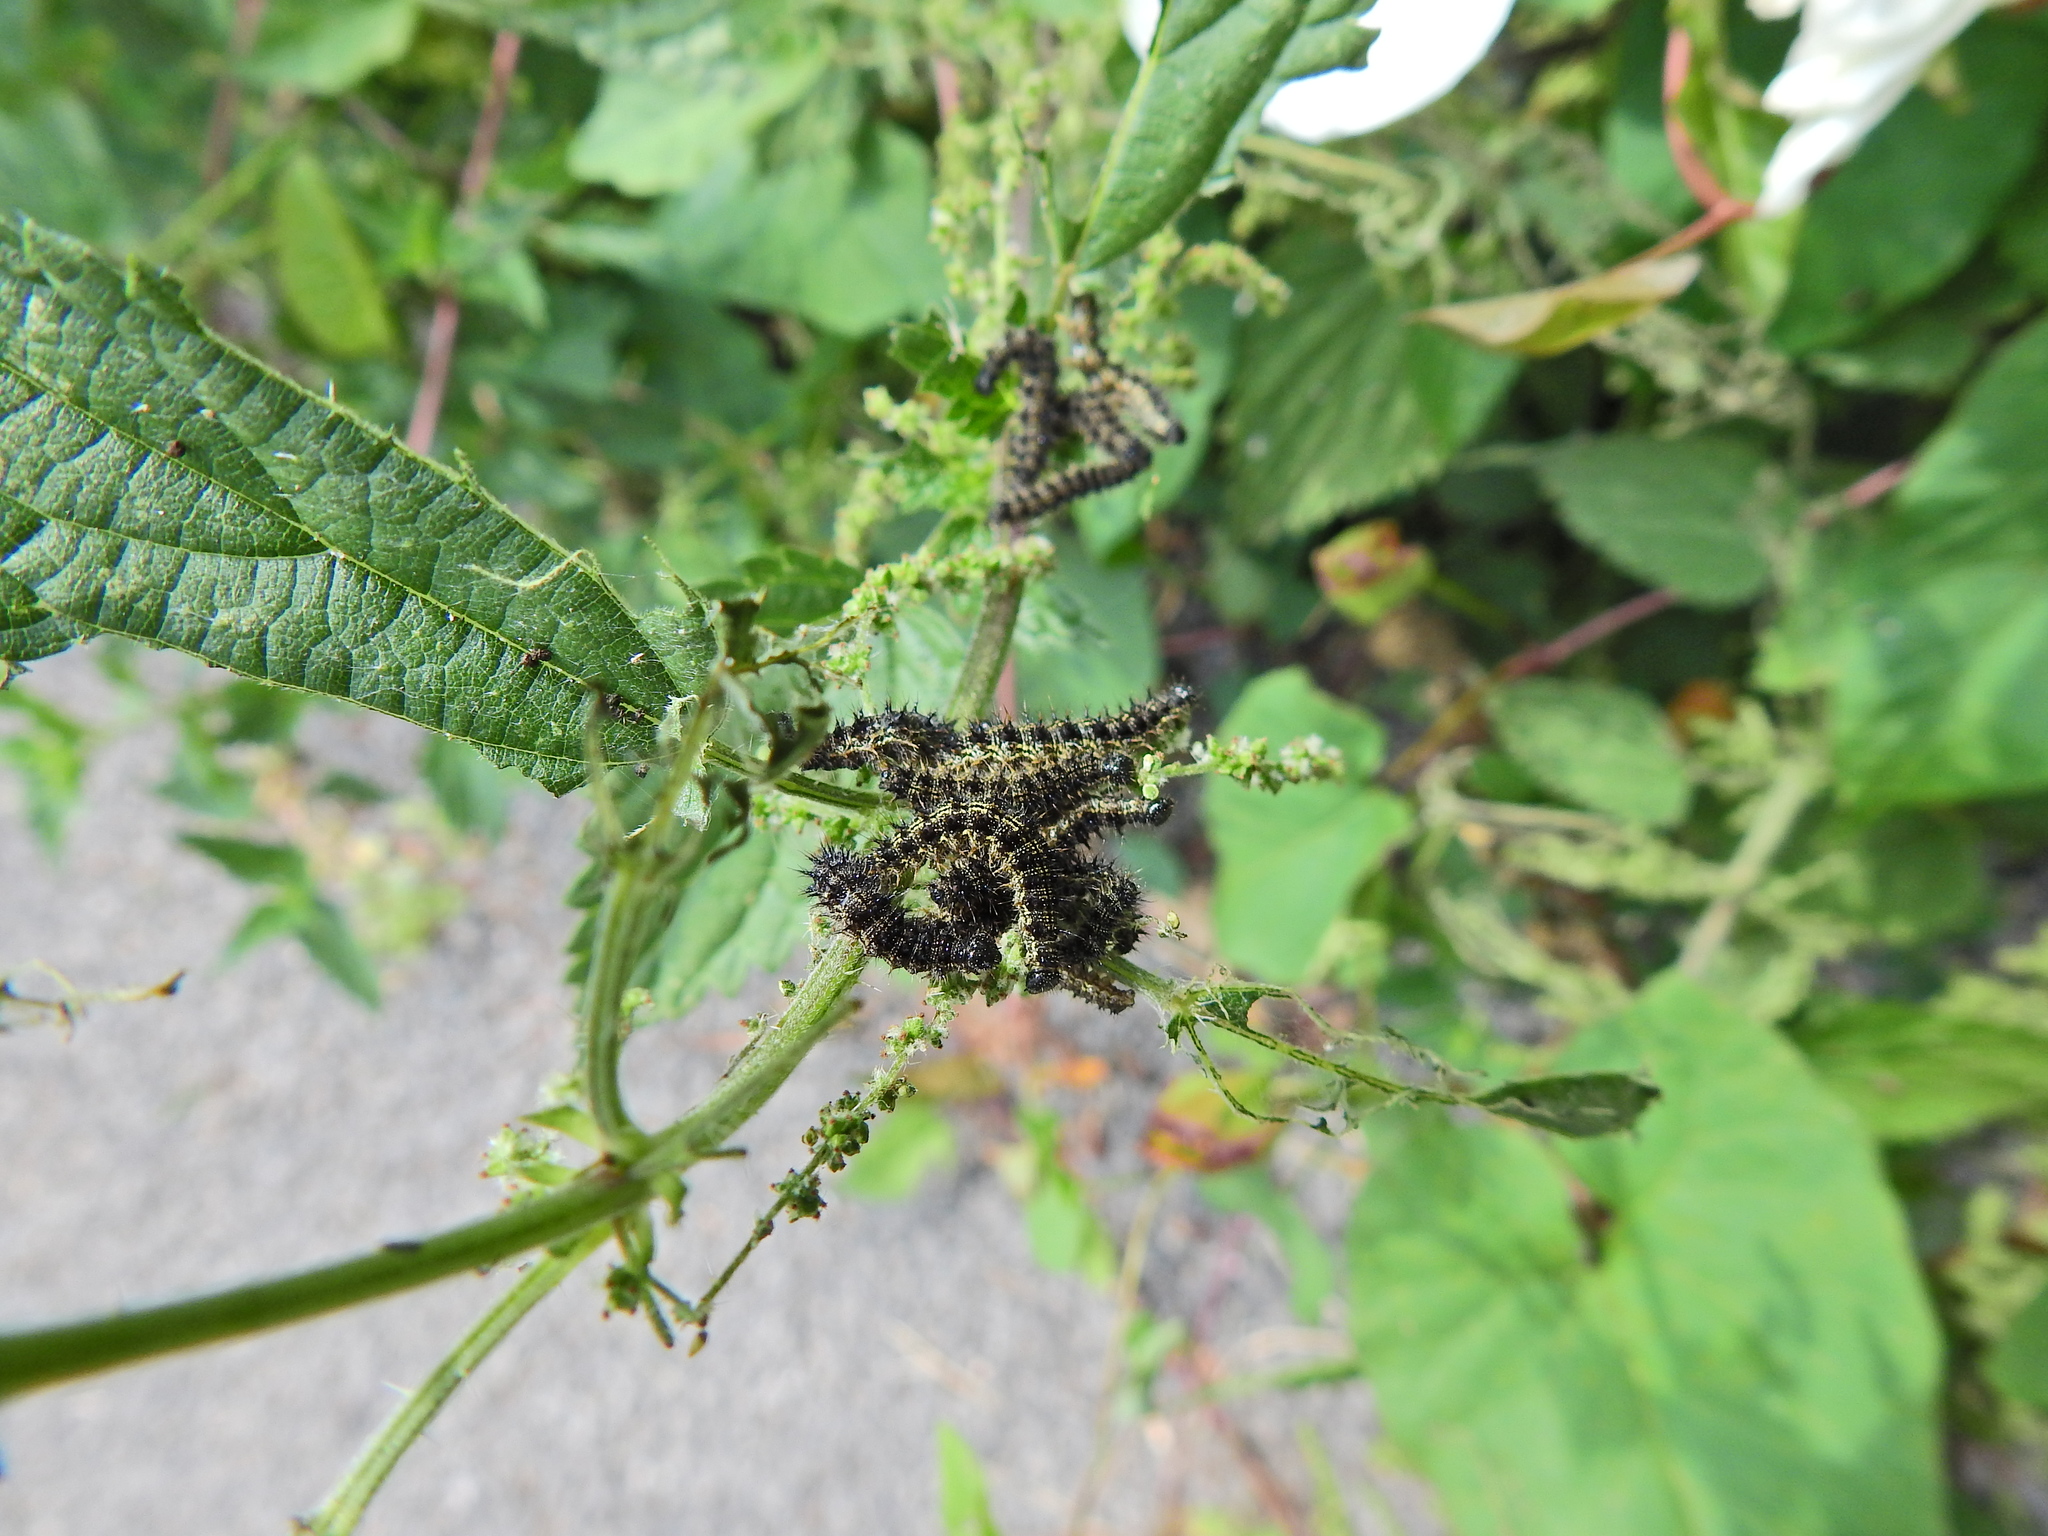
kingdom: Animalia
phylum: Arthropoda
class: Insecta
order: Lepidoptera
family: Nymphalidae
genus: Aglais
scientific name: Aglais urticae
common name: Small tortoiseshell
